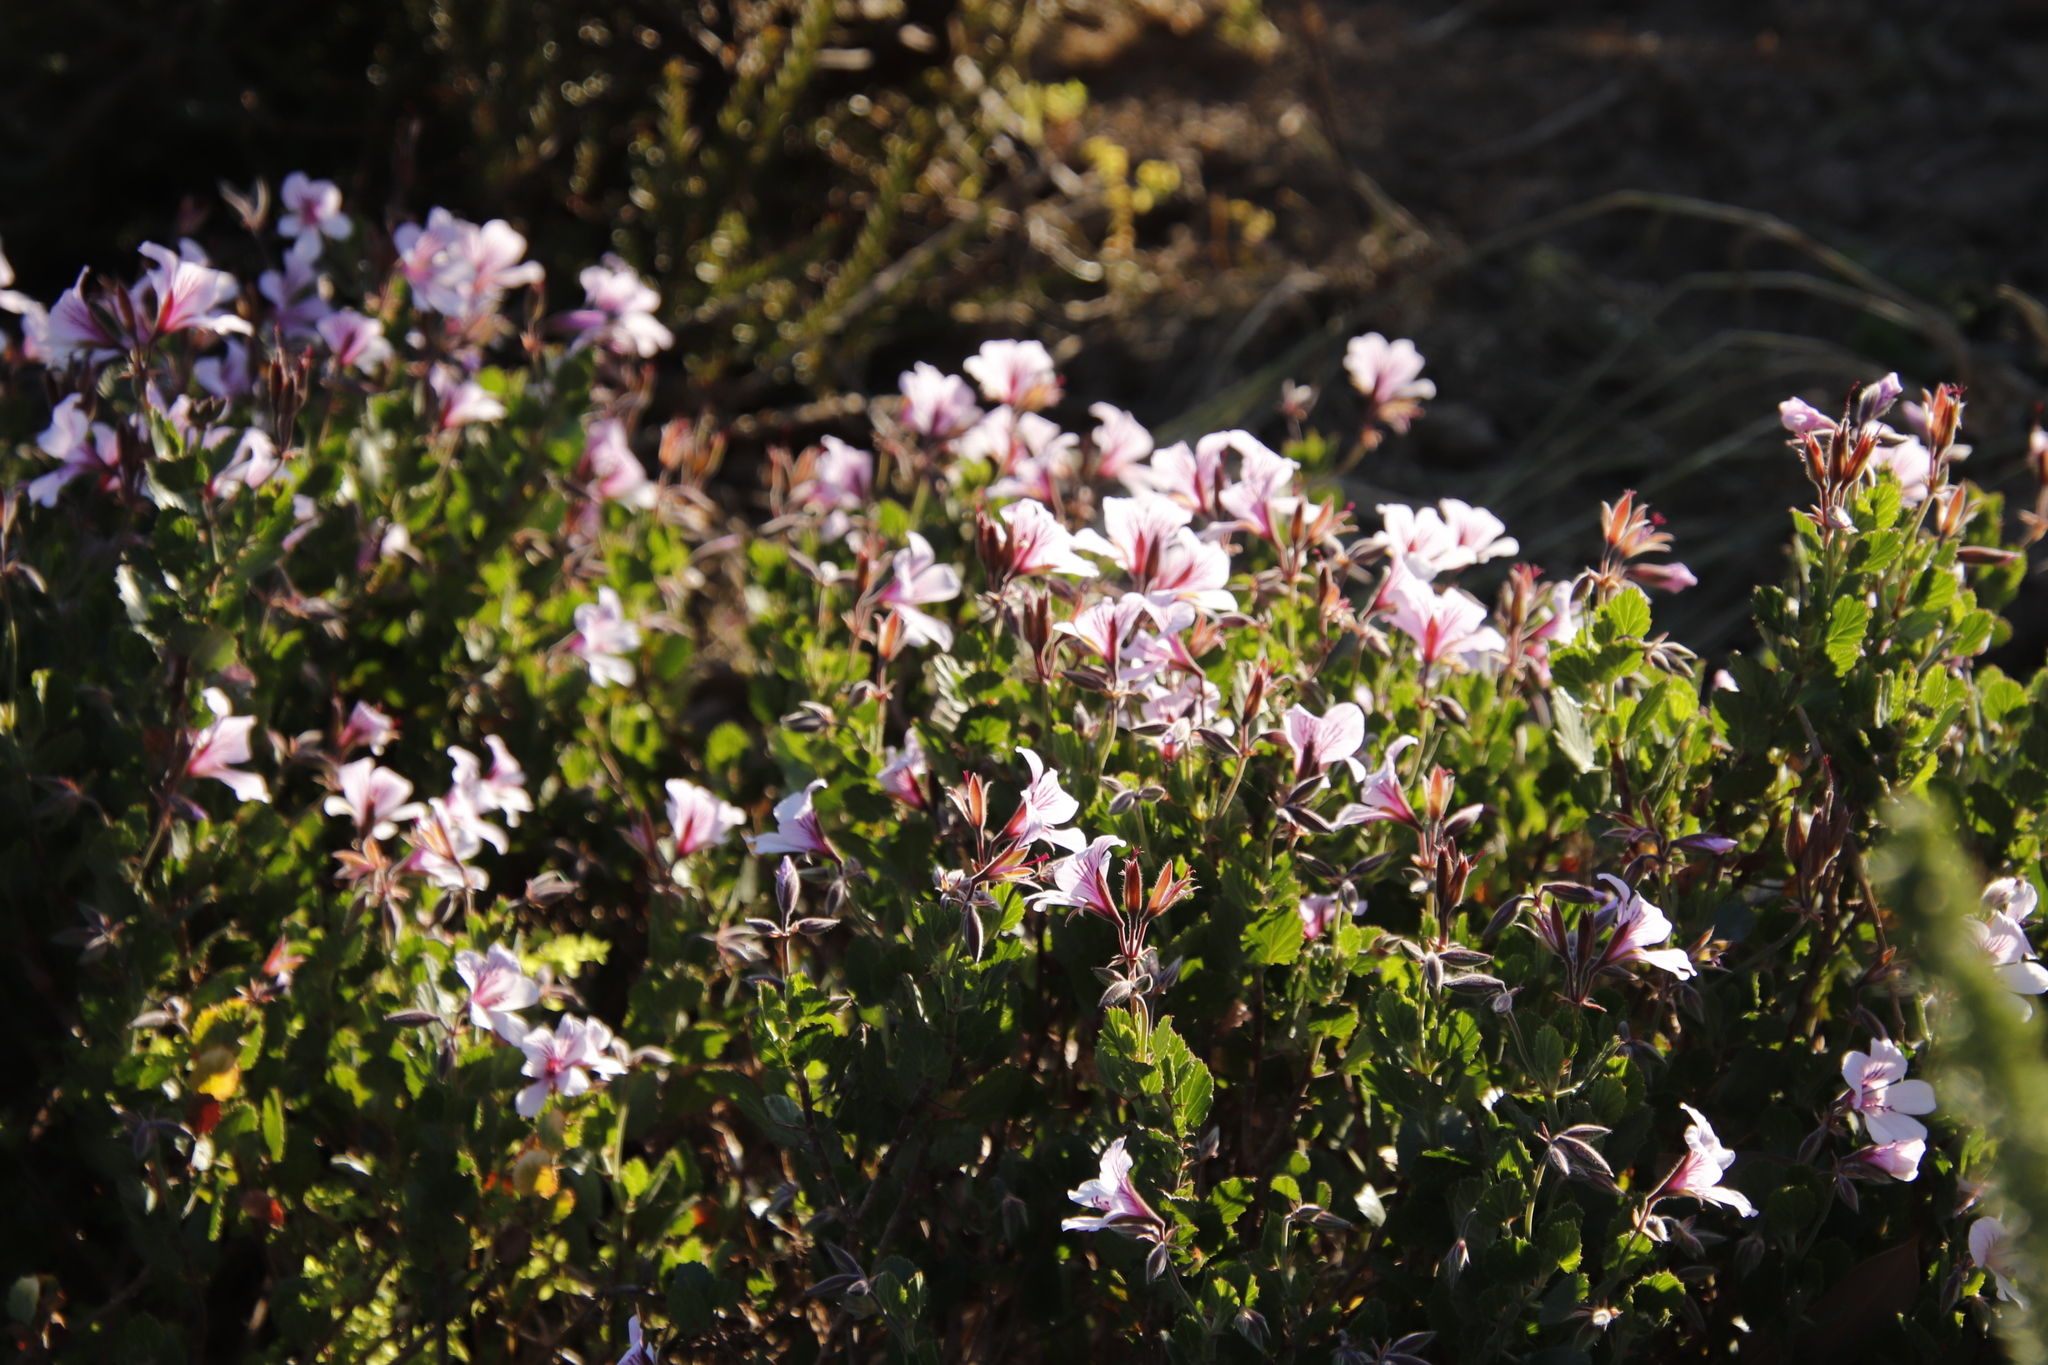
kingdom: Plantae
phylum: Tracheophyta
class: Magnoliopsida
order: Geraniales
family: Geraniaceae
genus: Pelargonium
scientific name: Pelargonium betulinum
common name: Birch-leaf pelargonium
